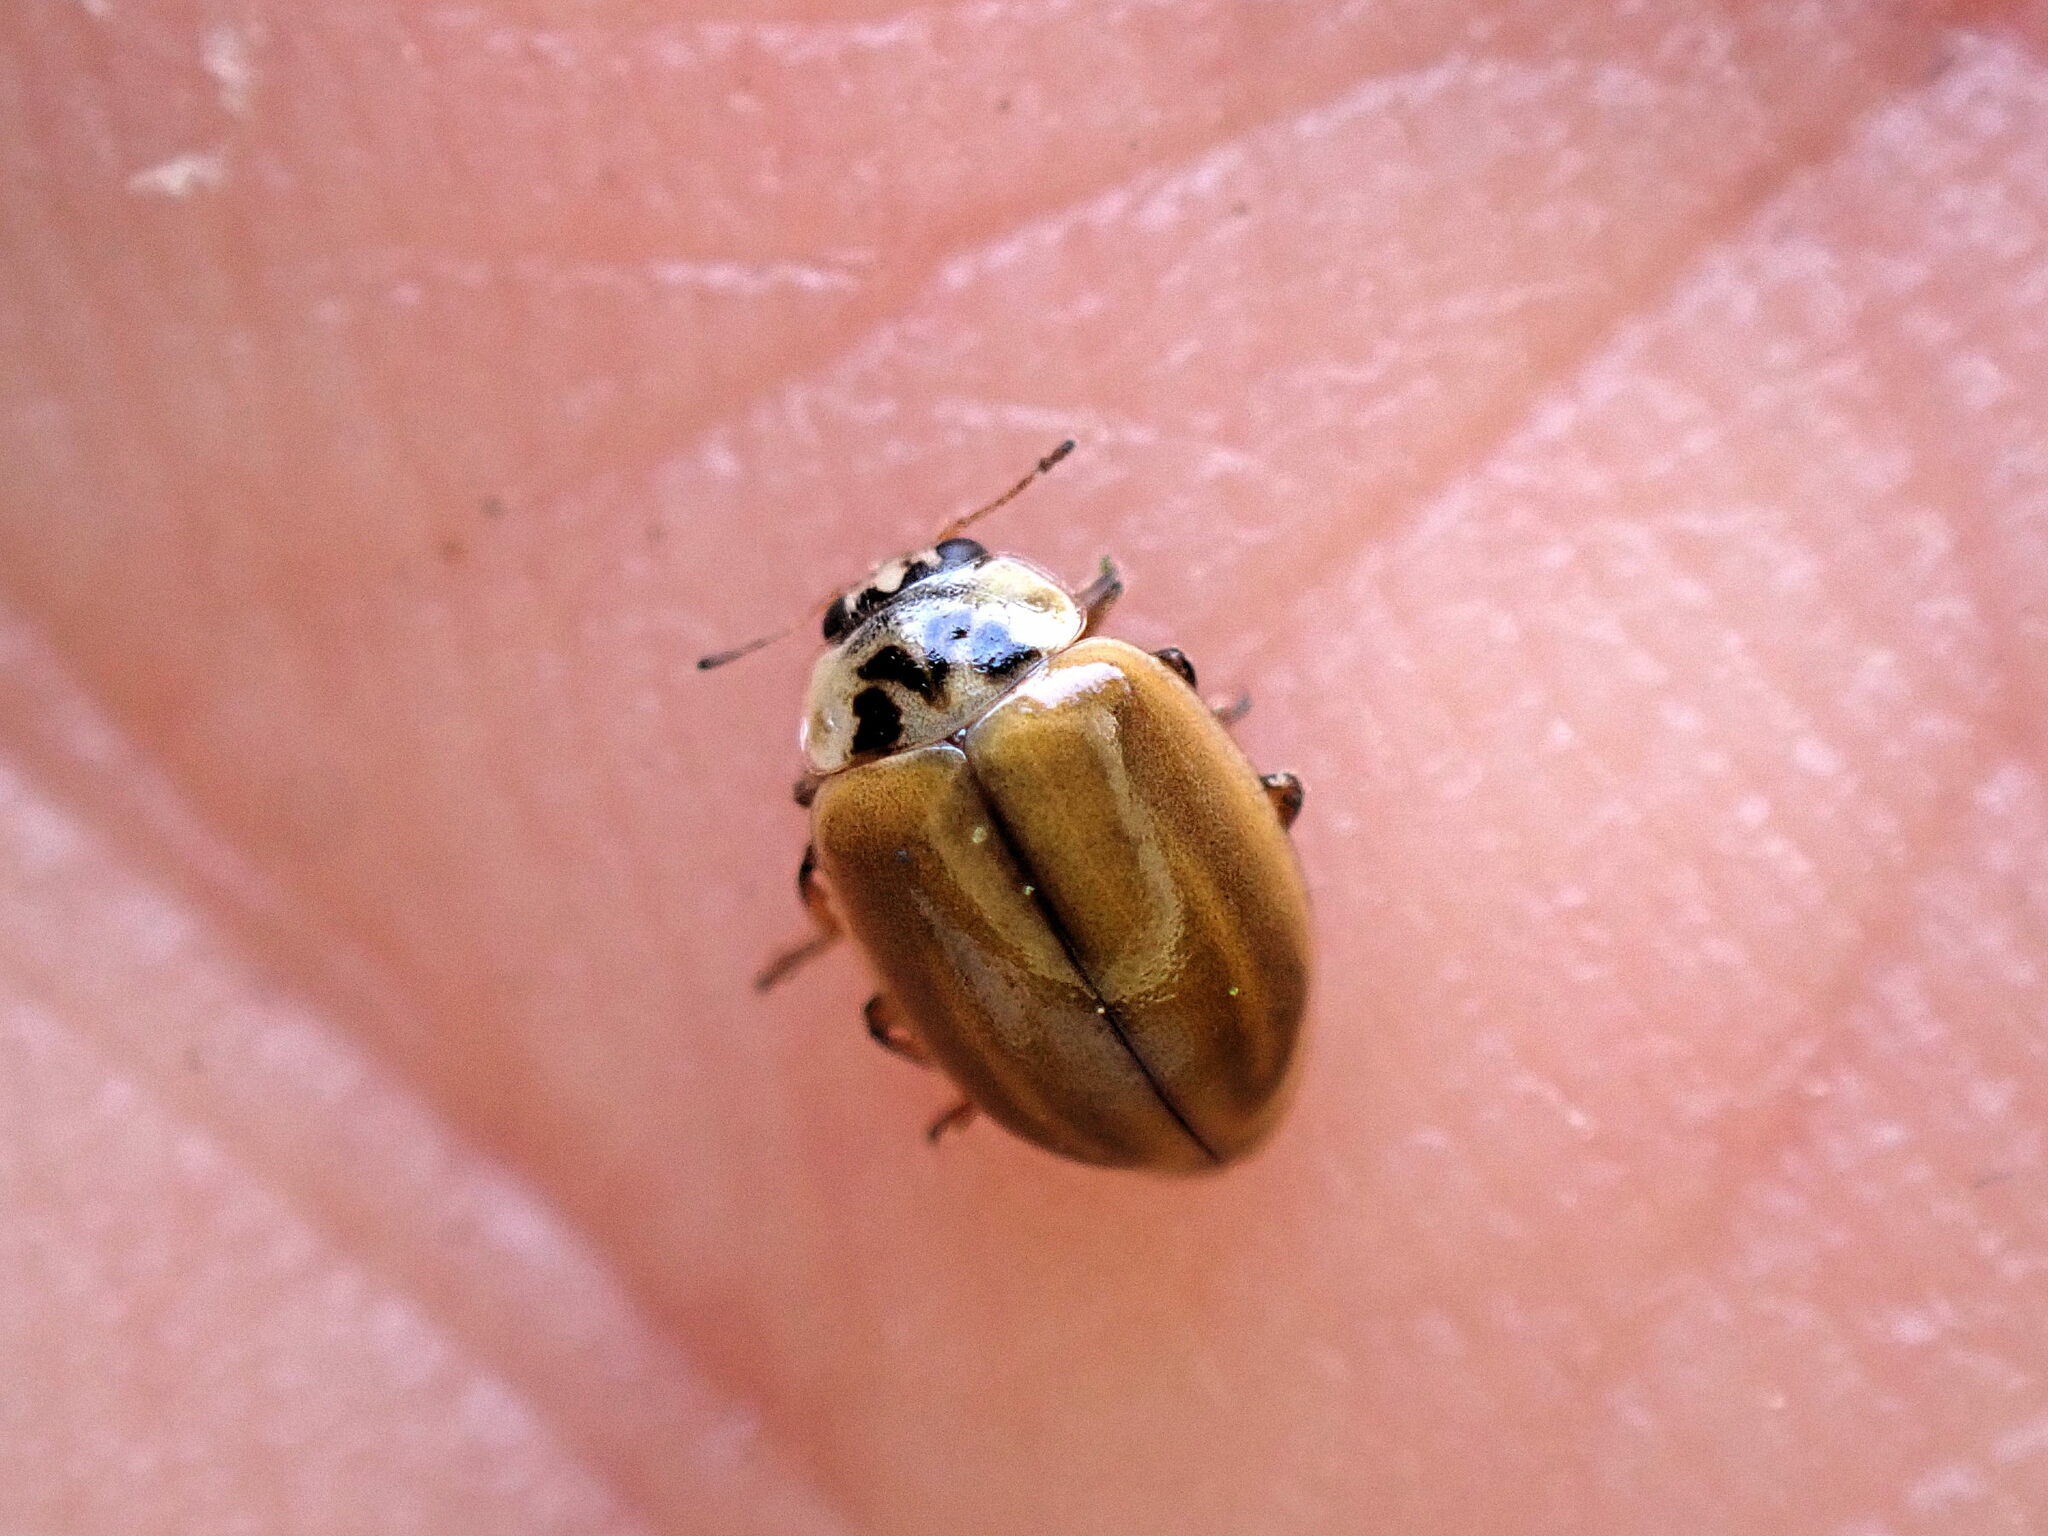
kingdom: Animalia
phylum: Arthropoda
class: Insecta
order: Coleoptera
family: Coccinellidae
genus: Aphidecta
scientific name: Aphidecta obliterata
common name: Larch ladybird
